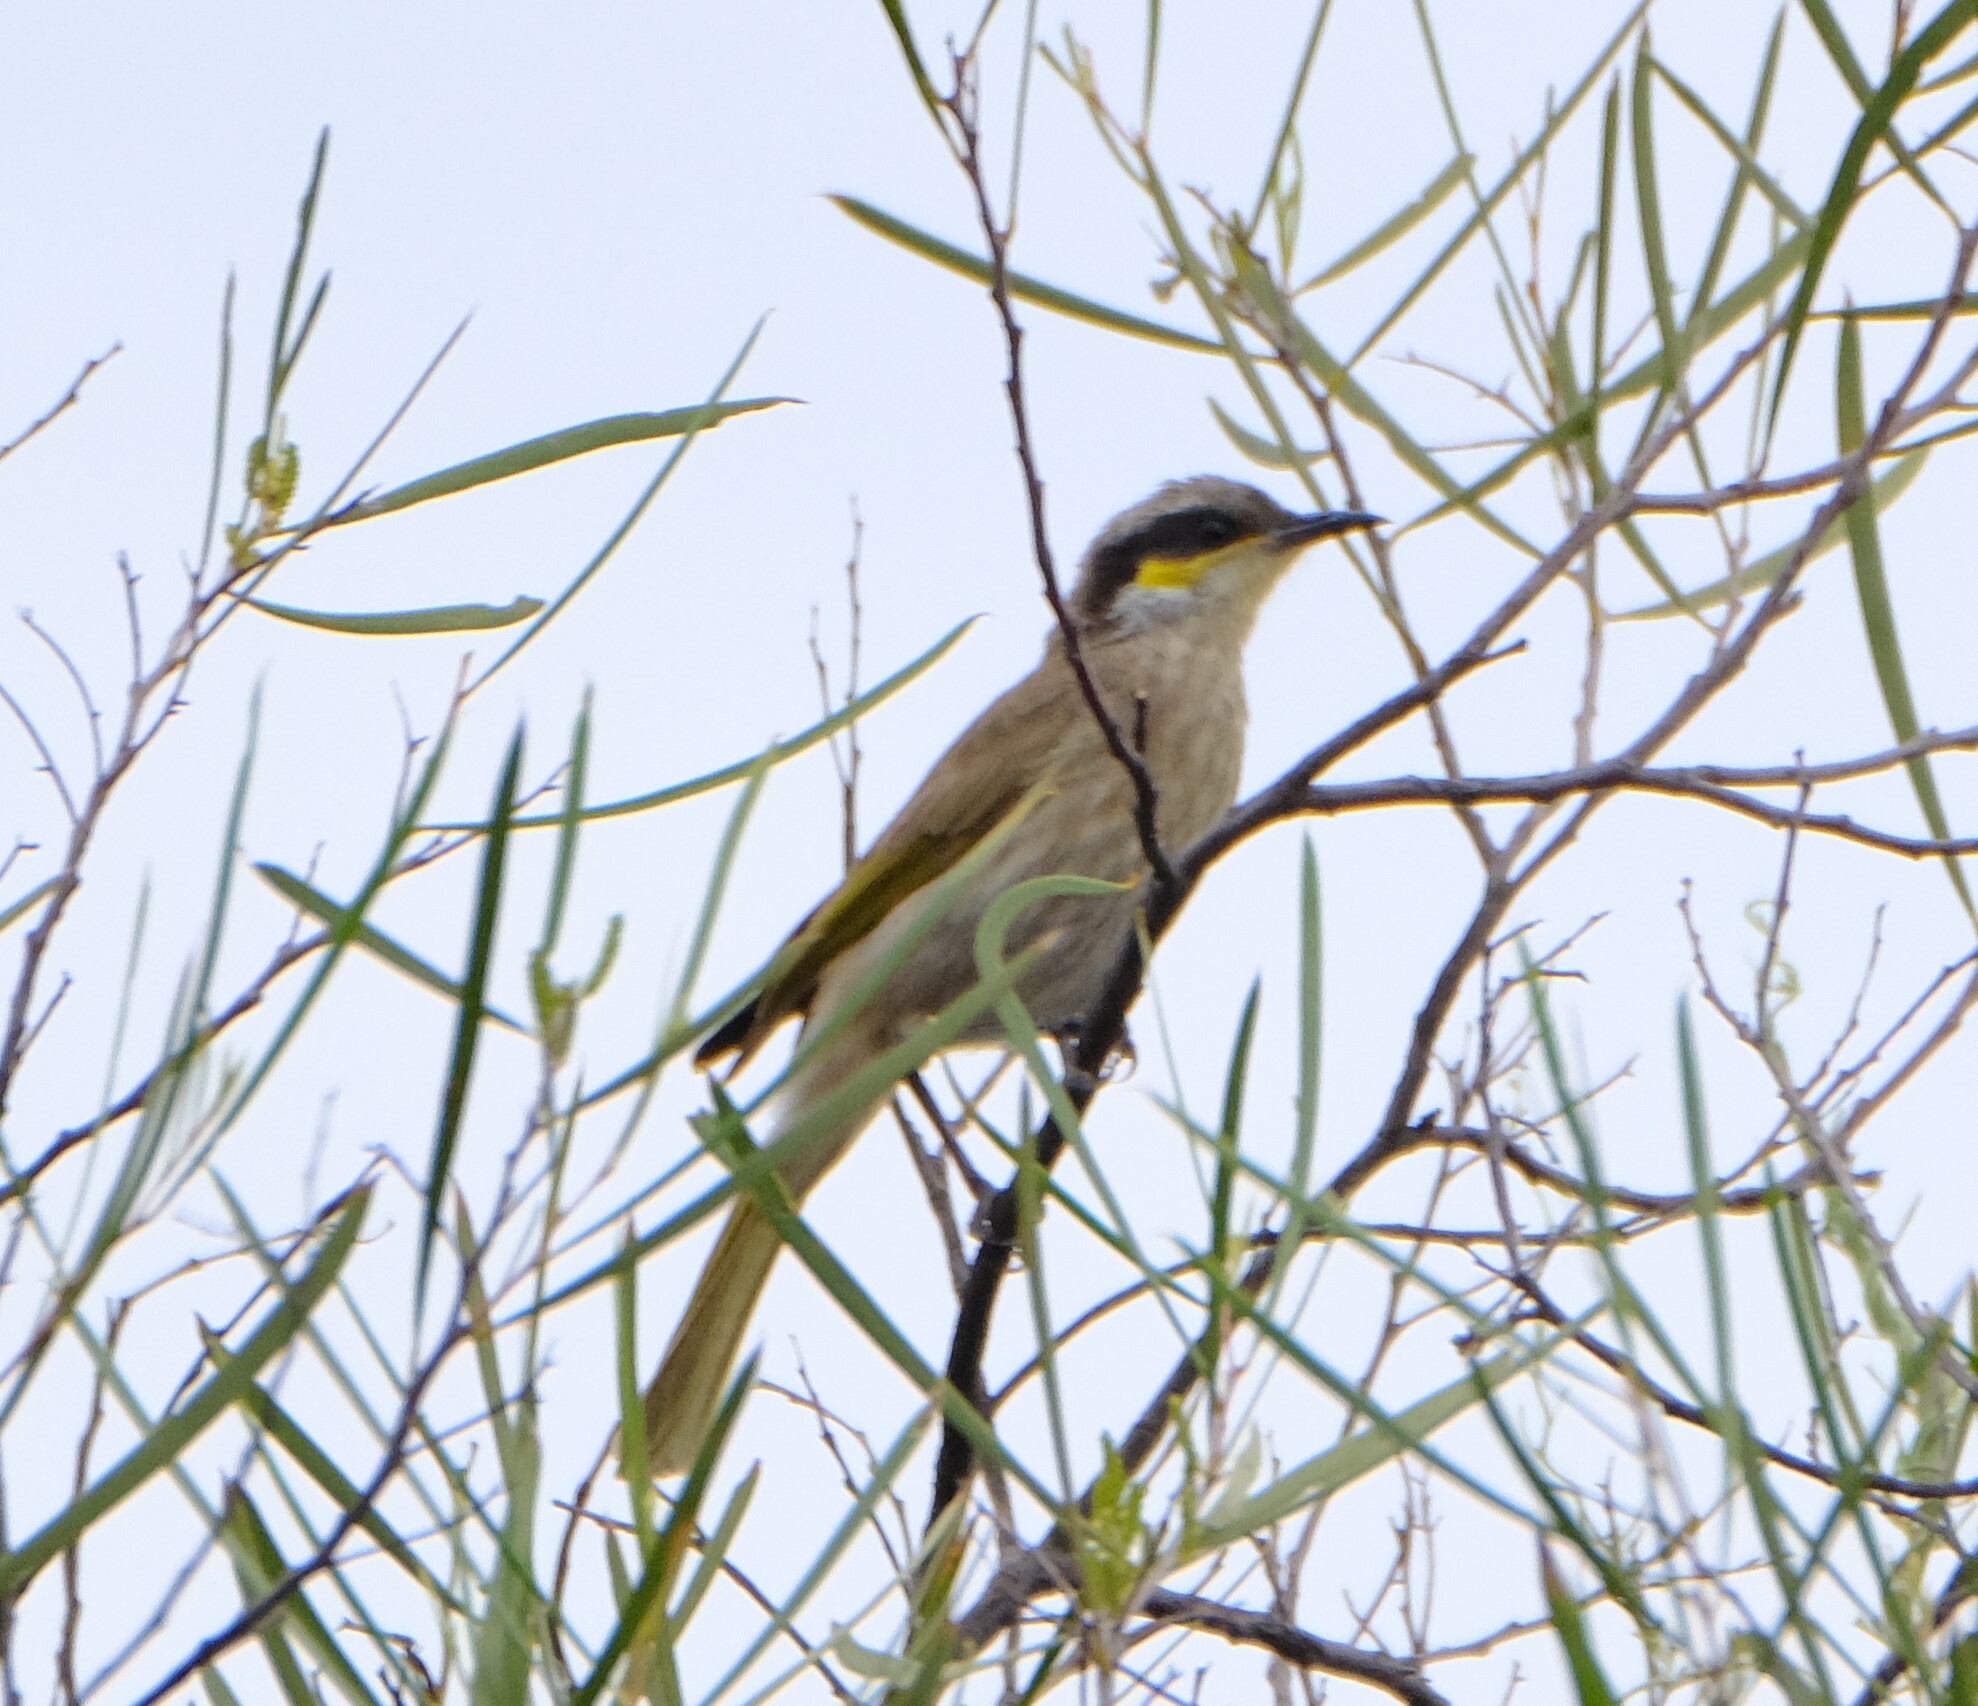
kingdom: Animalia
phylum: Chordata
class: Aves
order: Passeriformes
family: Meliphagidae
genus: Gavicalis
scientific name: Gavicalis virescens
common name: Singing honeyeater
